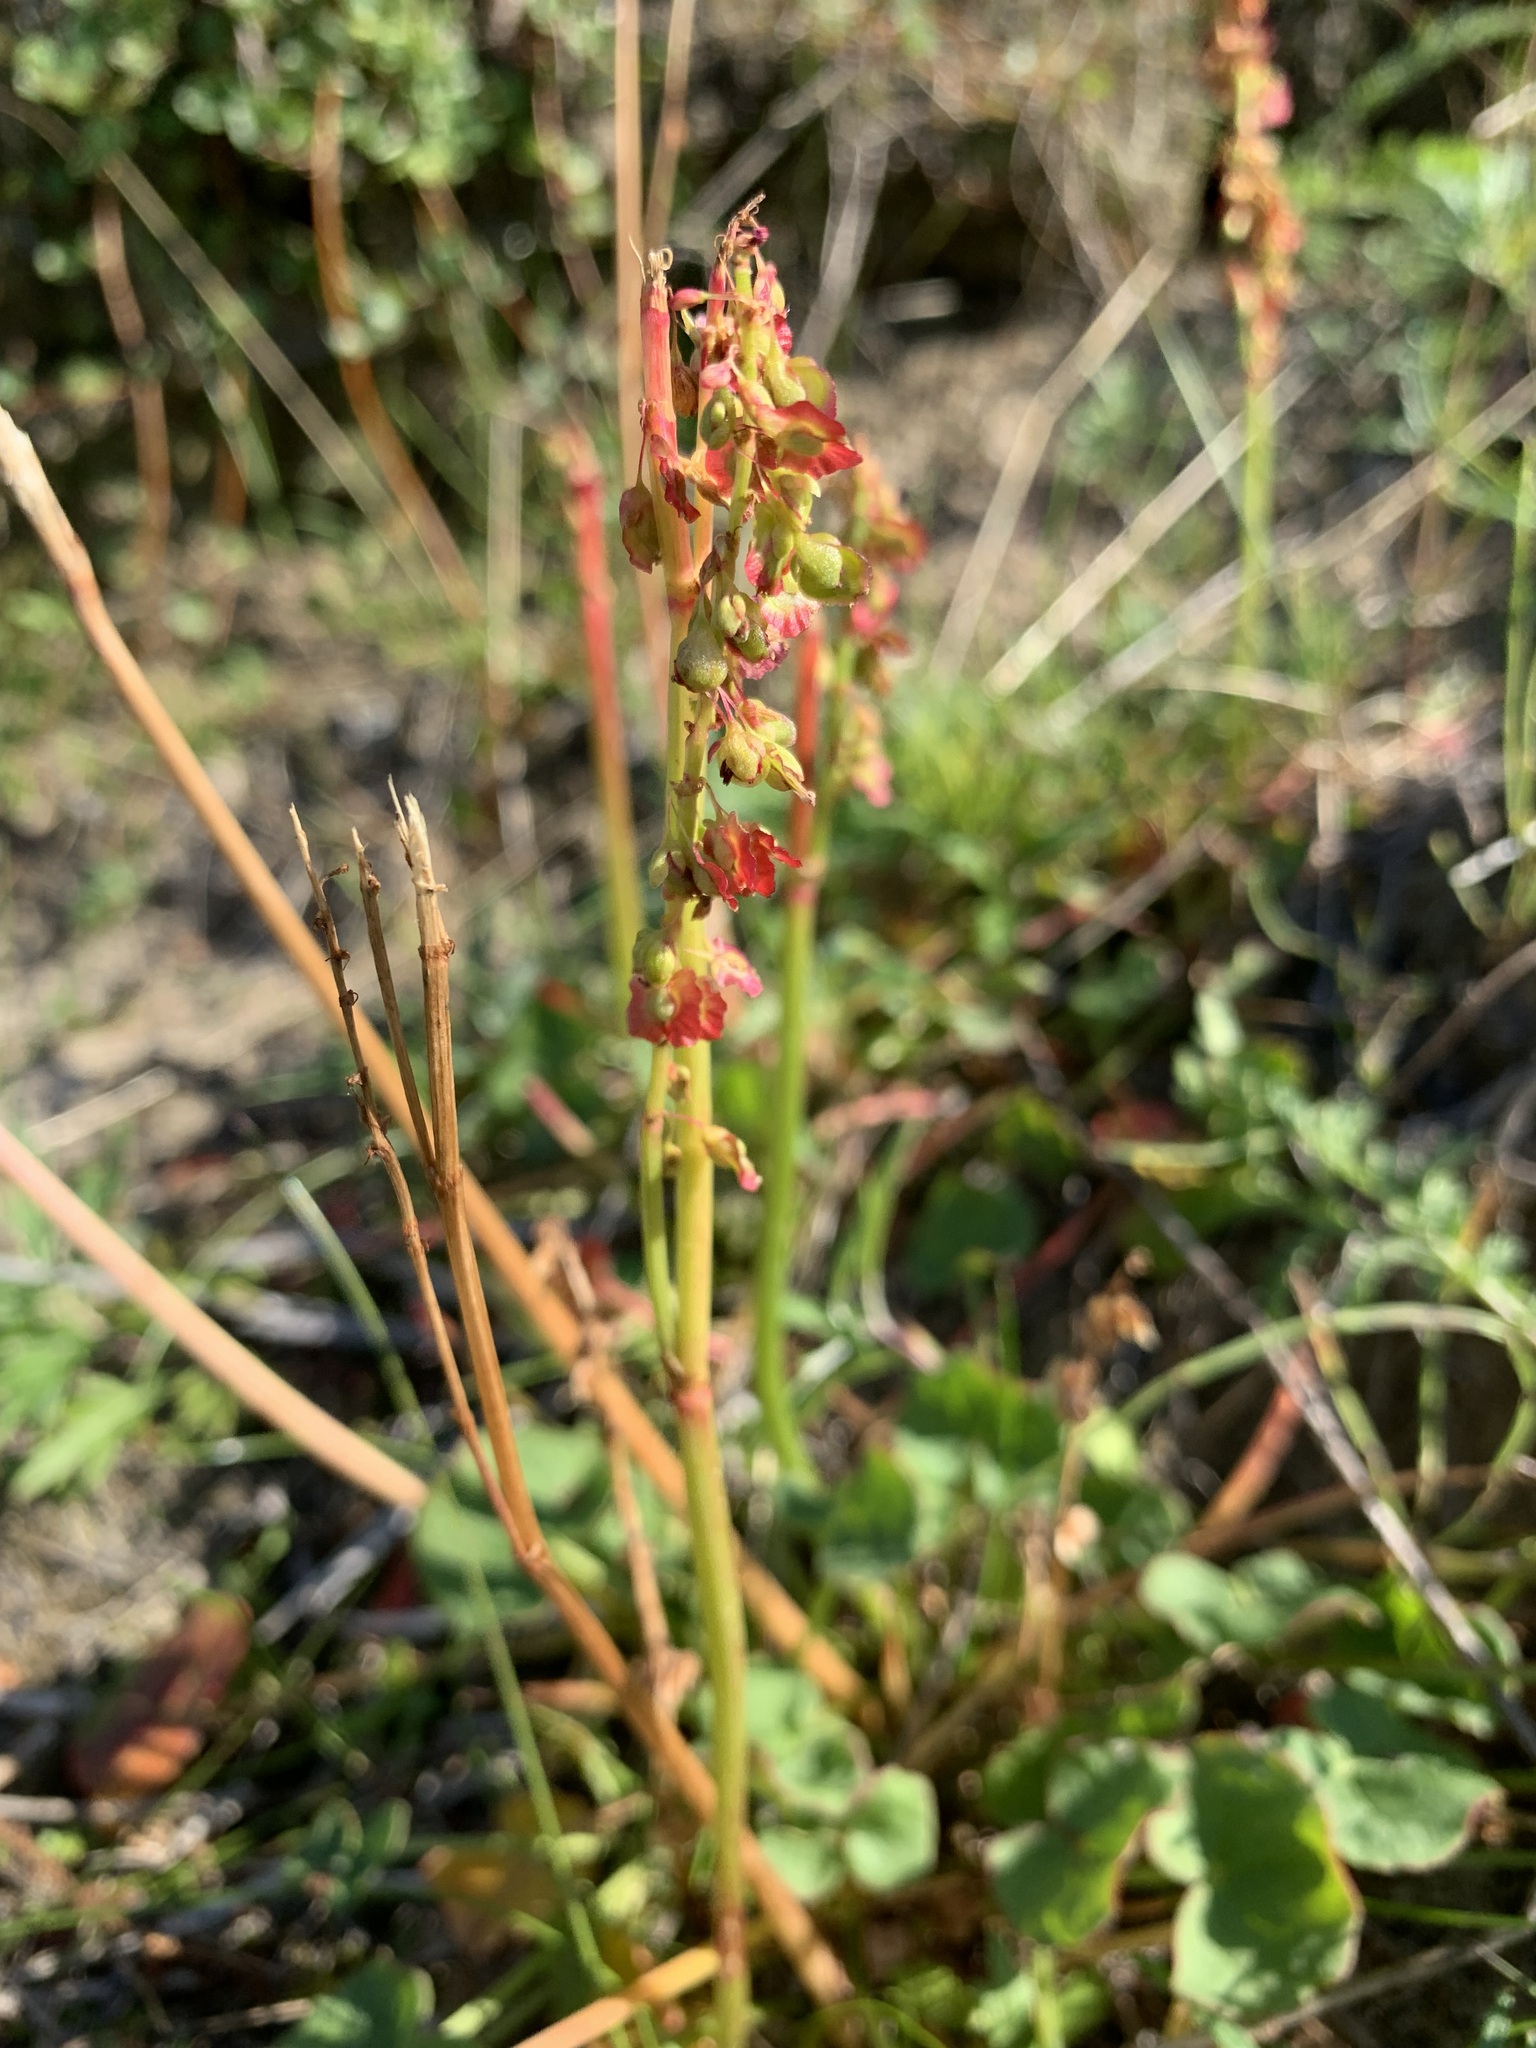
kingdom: Plantae
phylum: Tracheophyta
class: Magnoliopsida
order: Caryophyllales
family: Polygonaceae
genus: Oxyria
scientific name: Oxyria digyna
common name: Alpine mountain-sorrel
